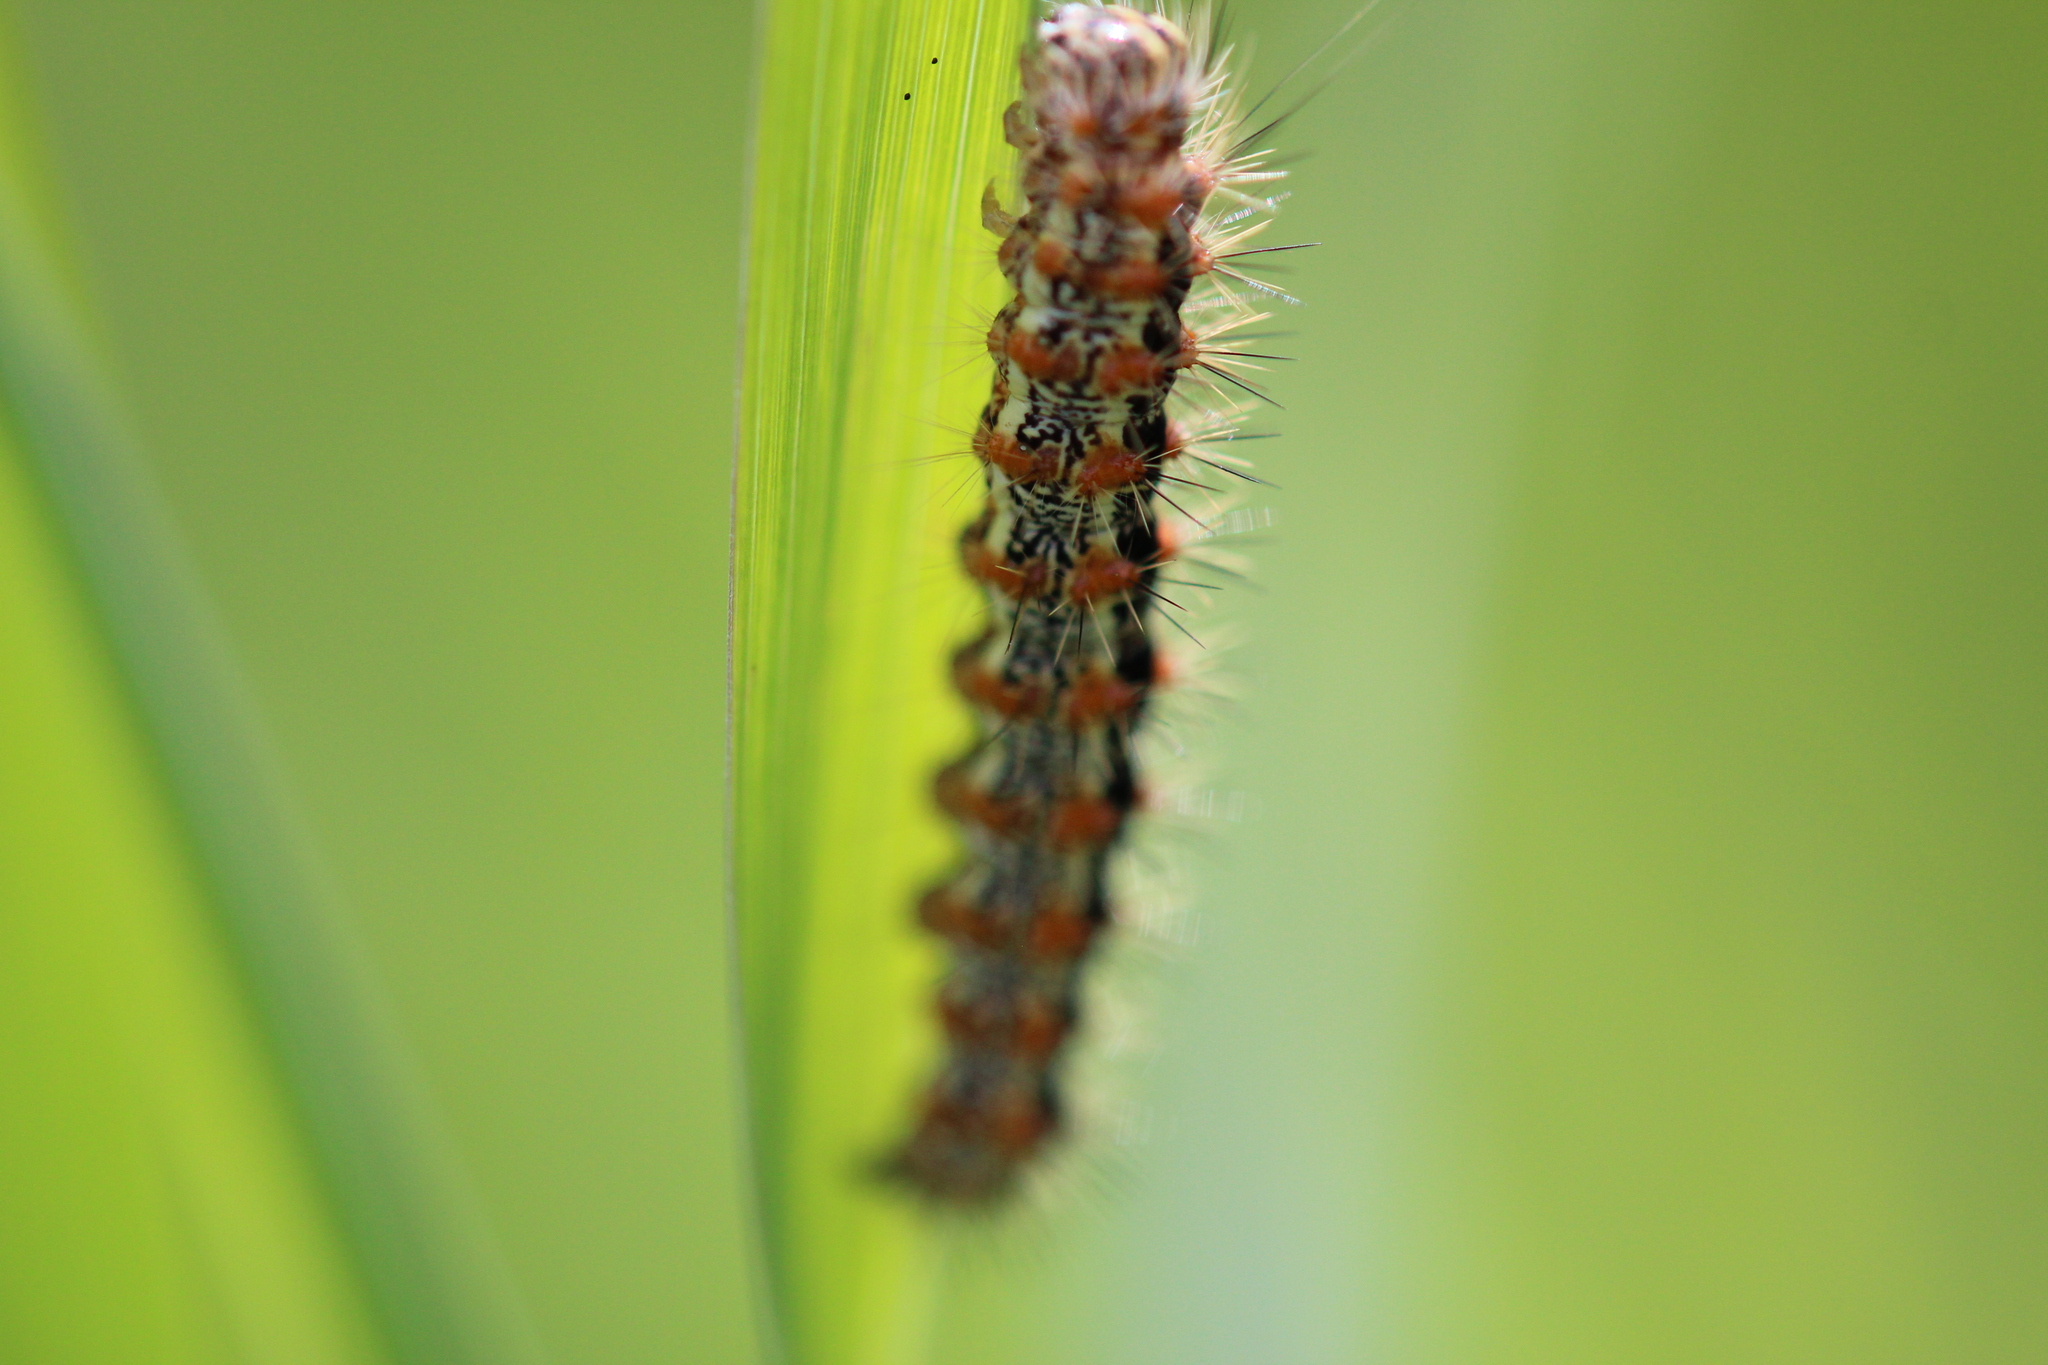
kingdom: Animalia
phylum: Arthropoda
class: Insecta
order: Lepidoptera
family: Noctuidae
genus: Acronicta
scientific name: Acronicta insularis
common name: Henry's marsh moth
